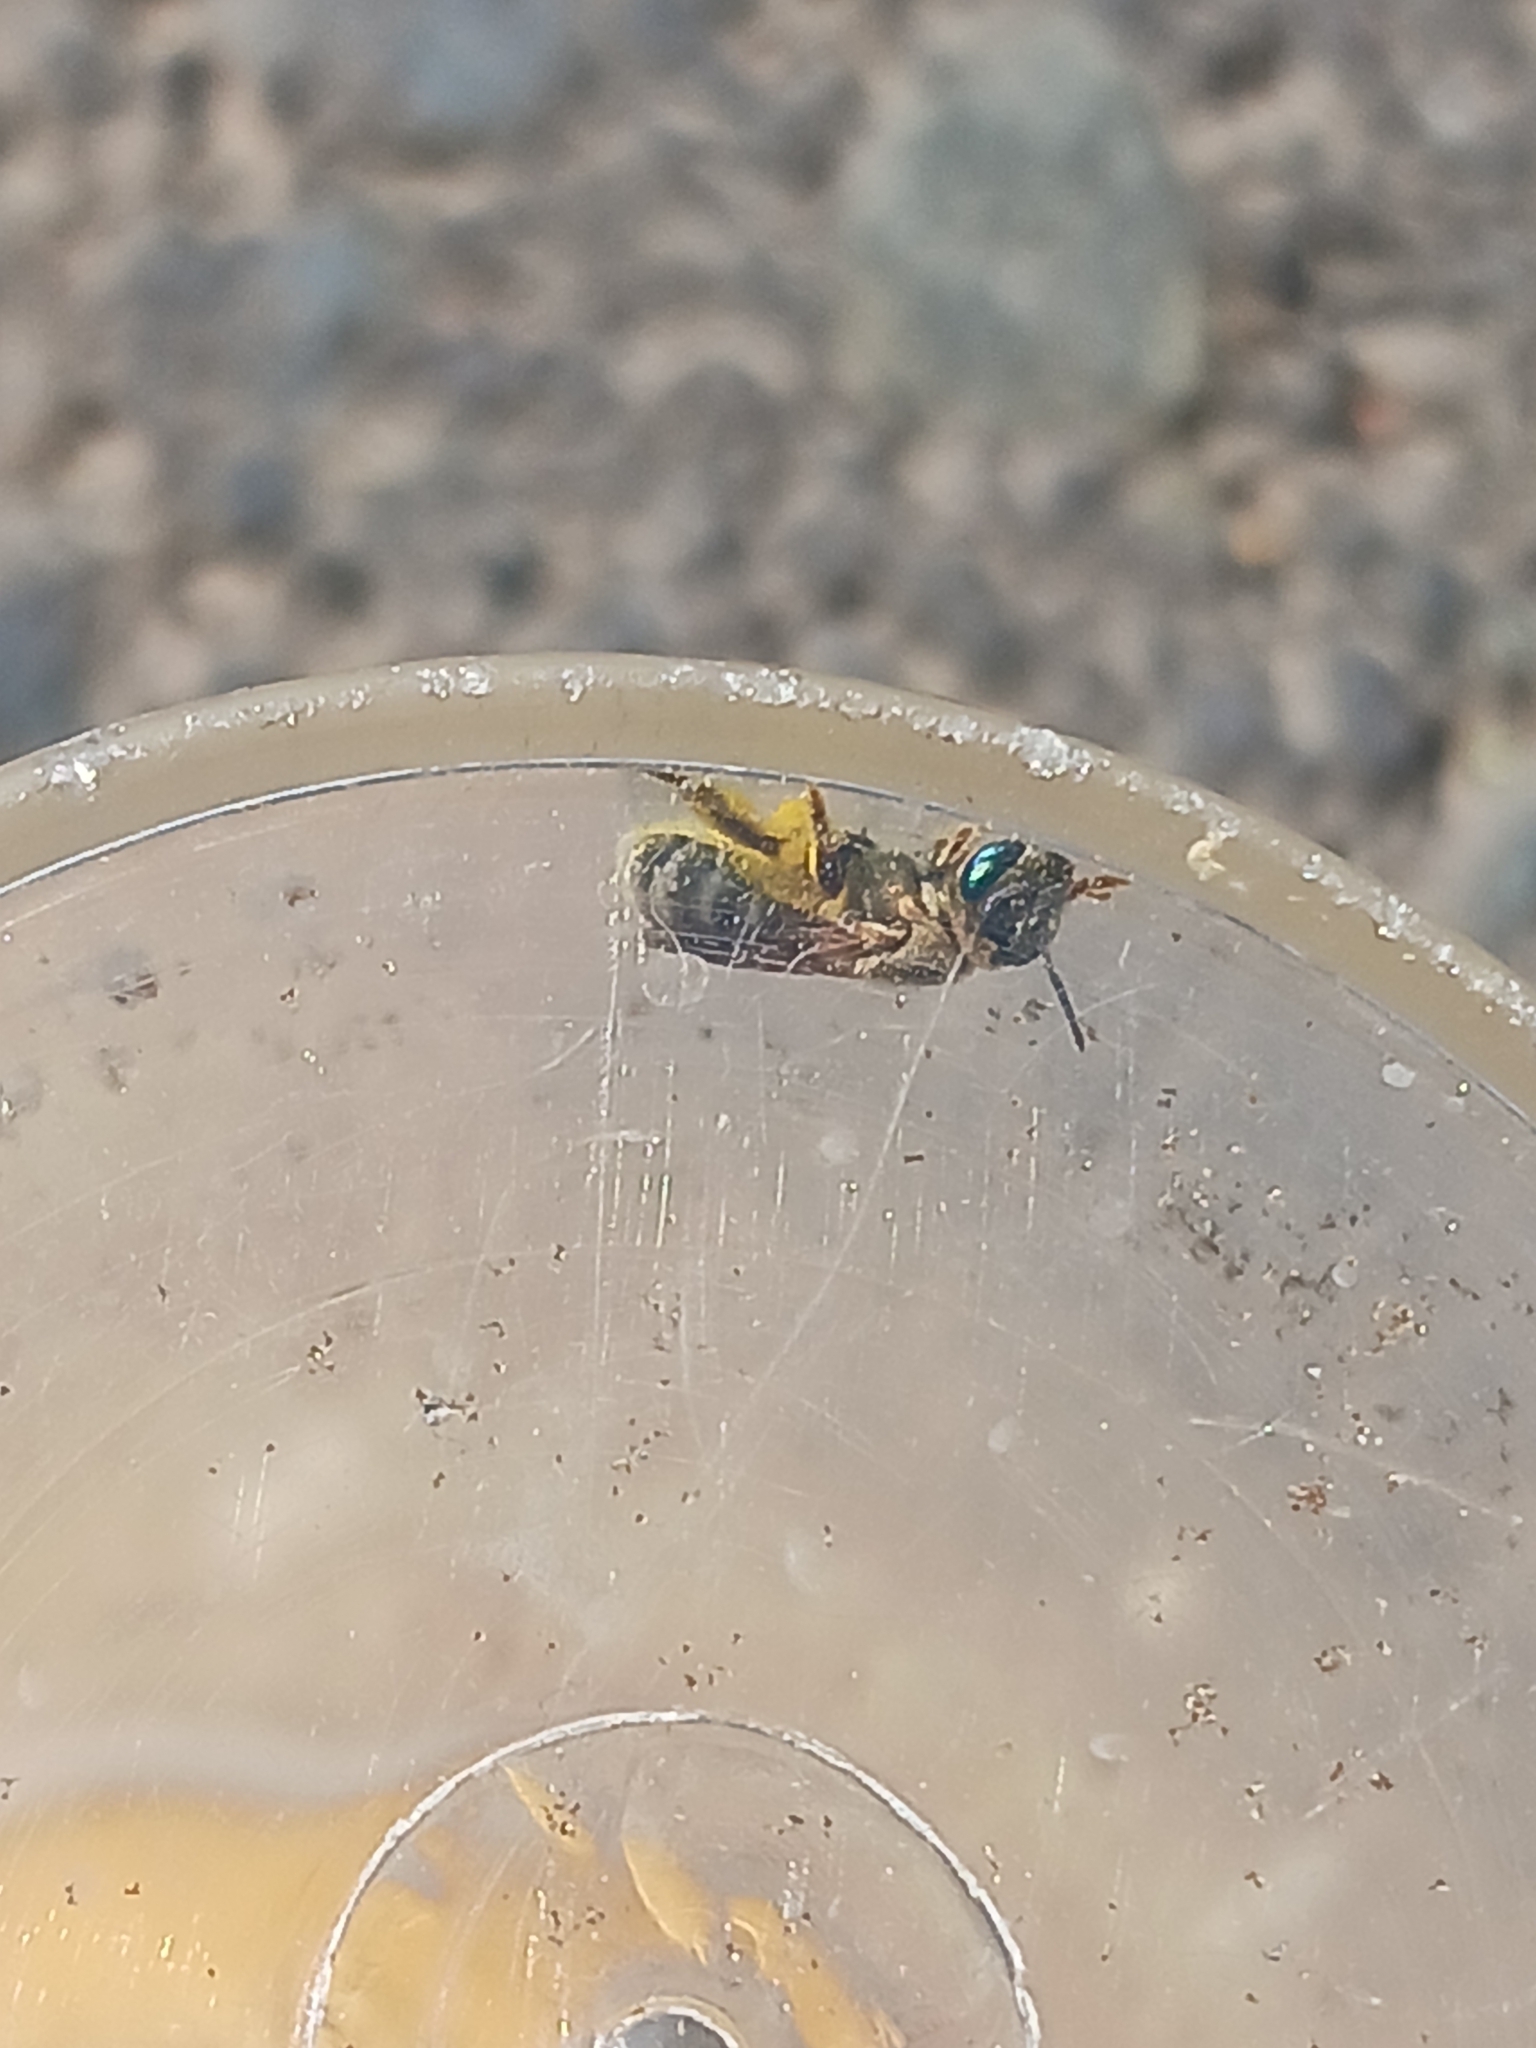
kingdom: Animalia
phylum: Arthropoda
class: Insecta
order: Hymenoptera
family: Halictidae
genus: Seladonia
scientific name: Seladonia
